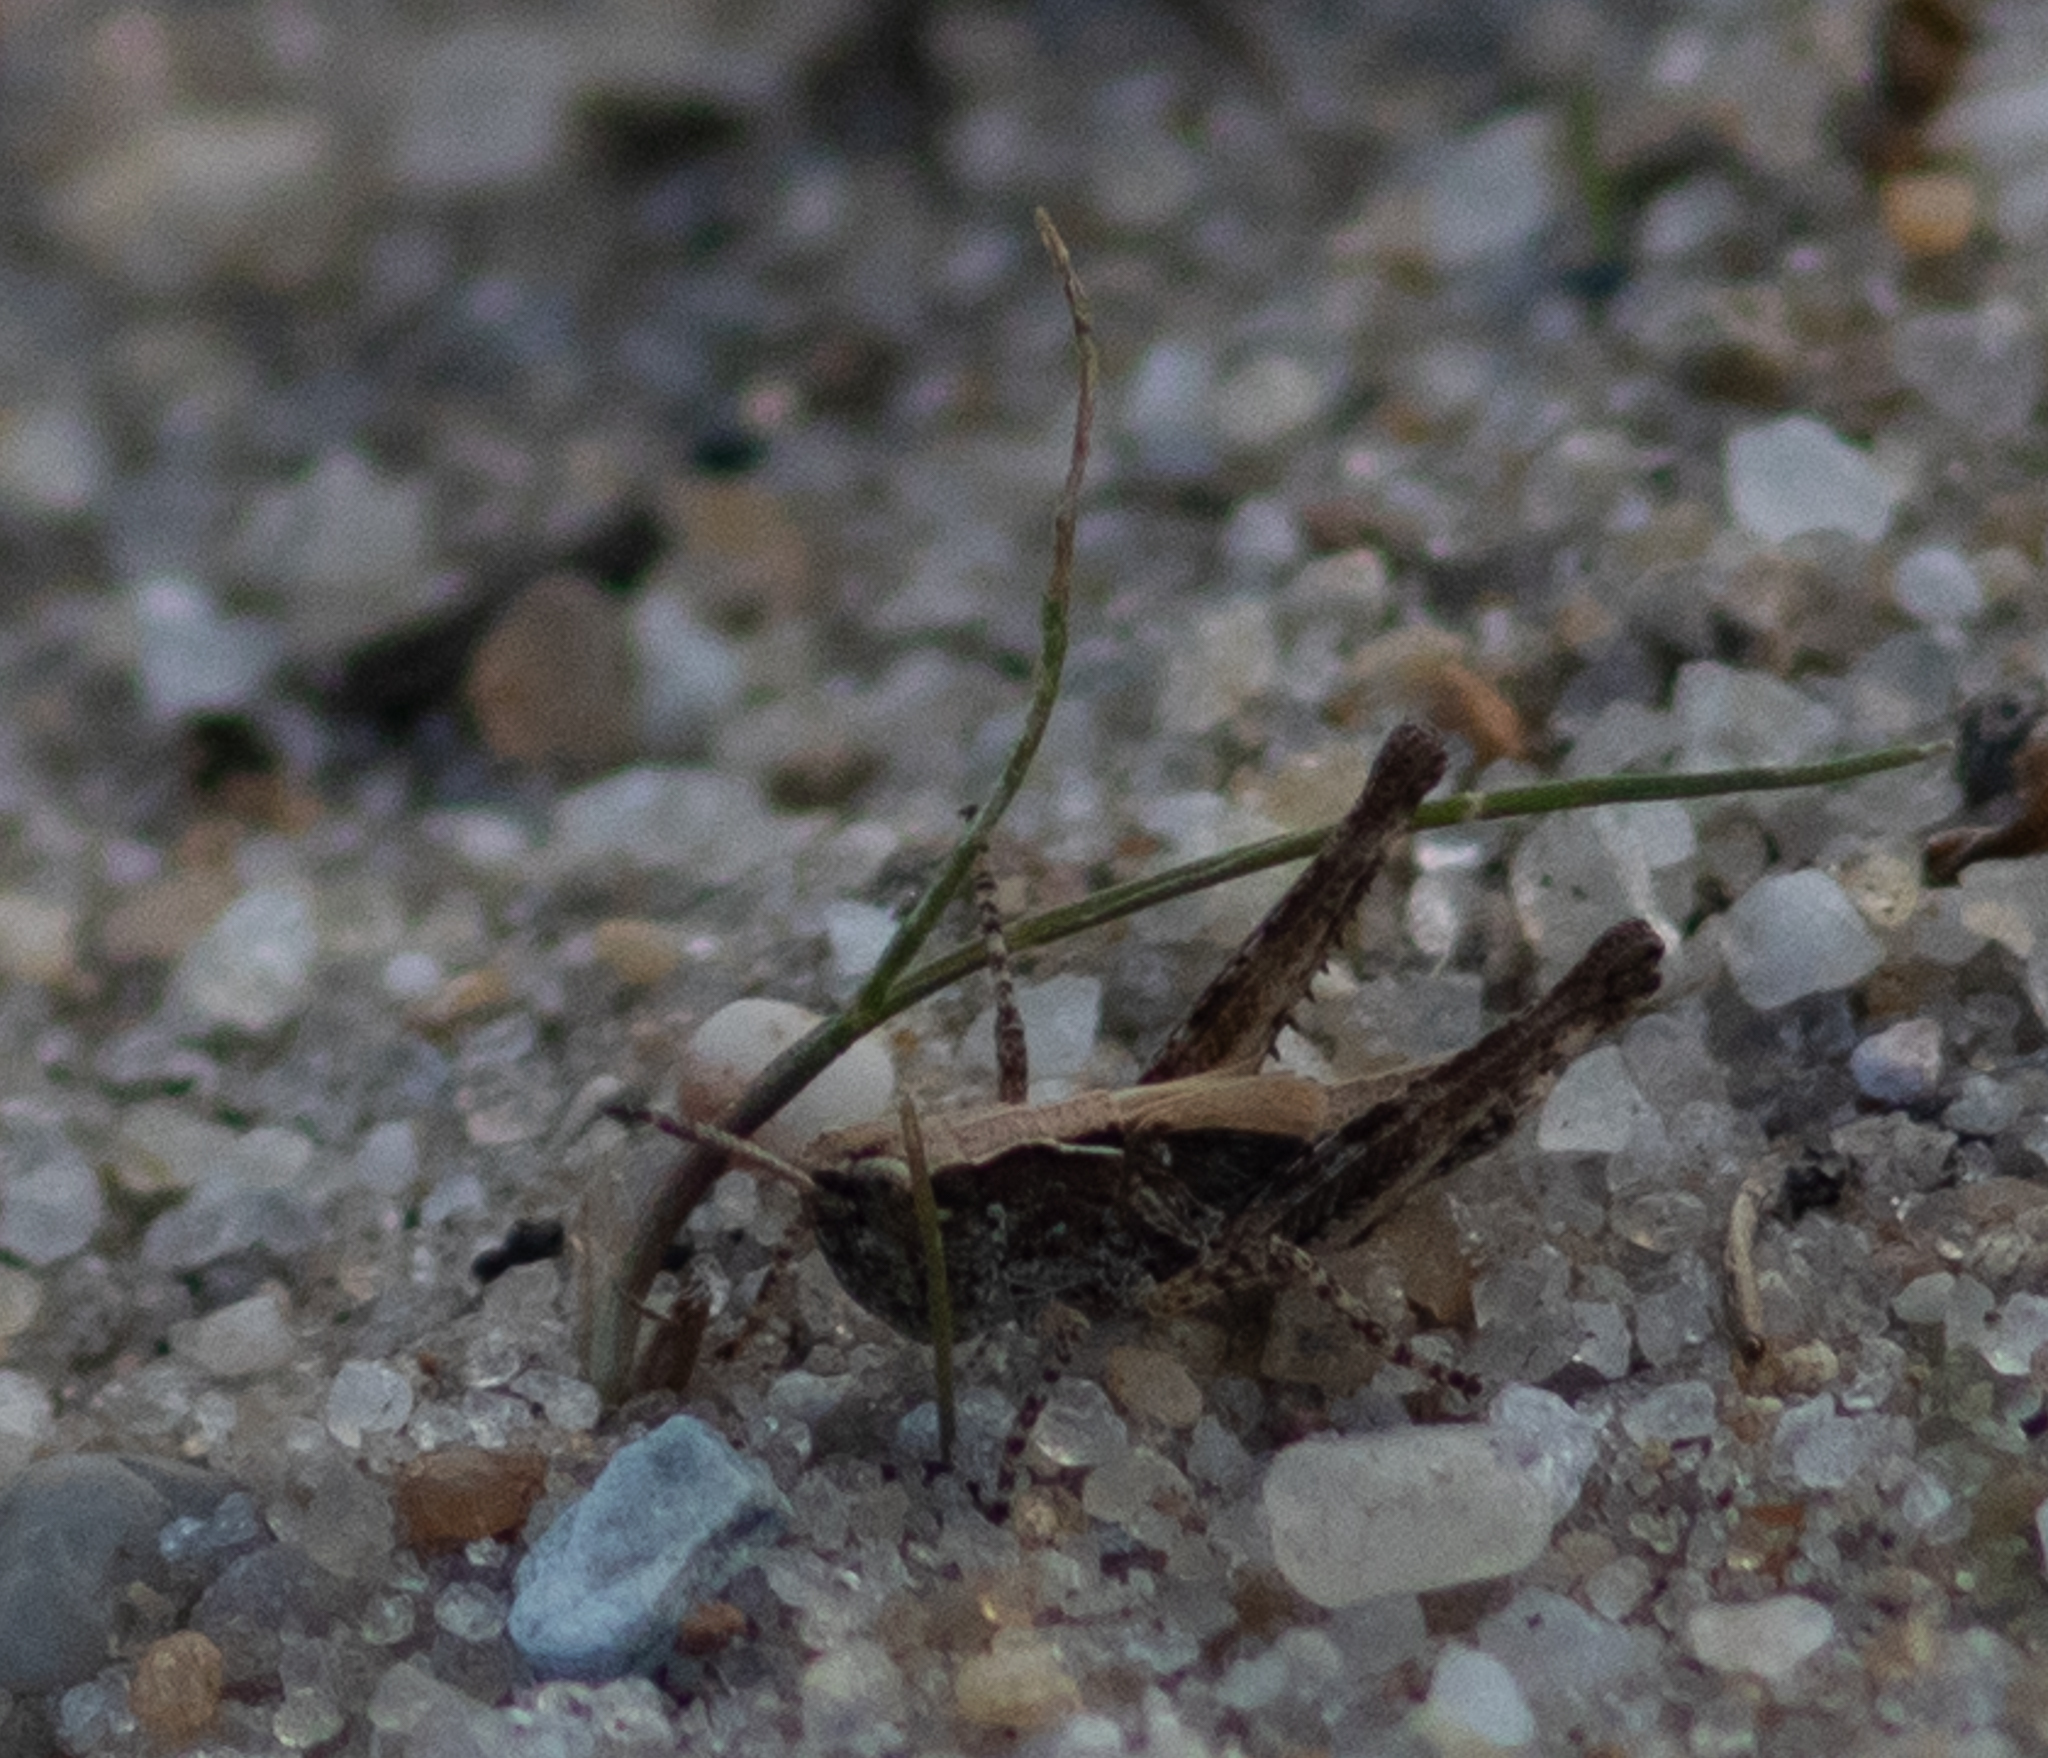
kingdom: Animalia
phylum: Arthropoda
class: Insecta
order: Orthoptera
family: Acrididae
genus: Orphulella
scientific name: Orphulella pelidna
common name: Spotted-wing grasshopper
